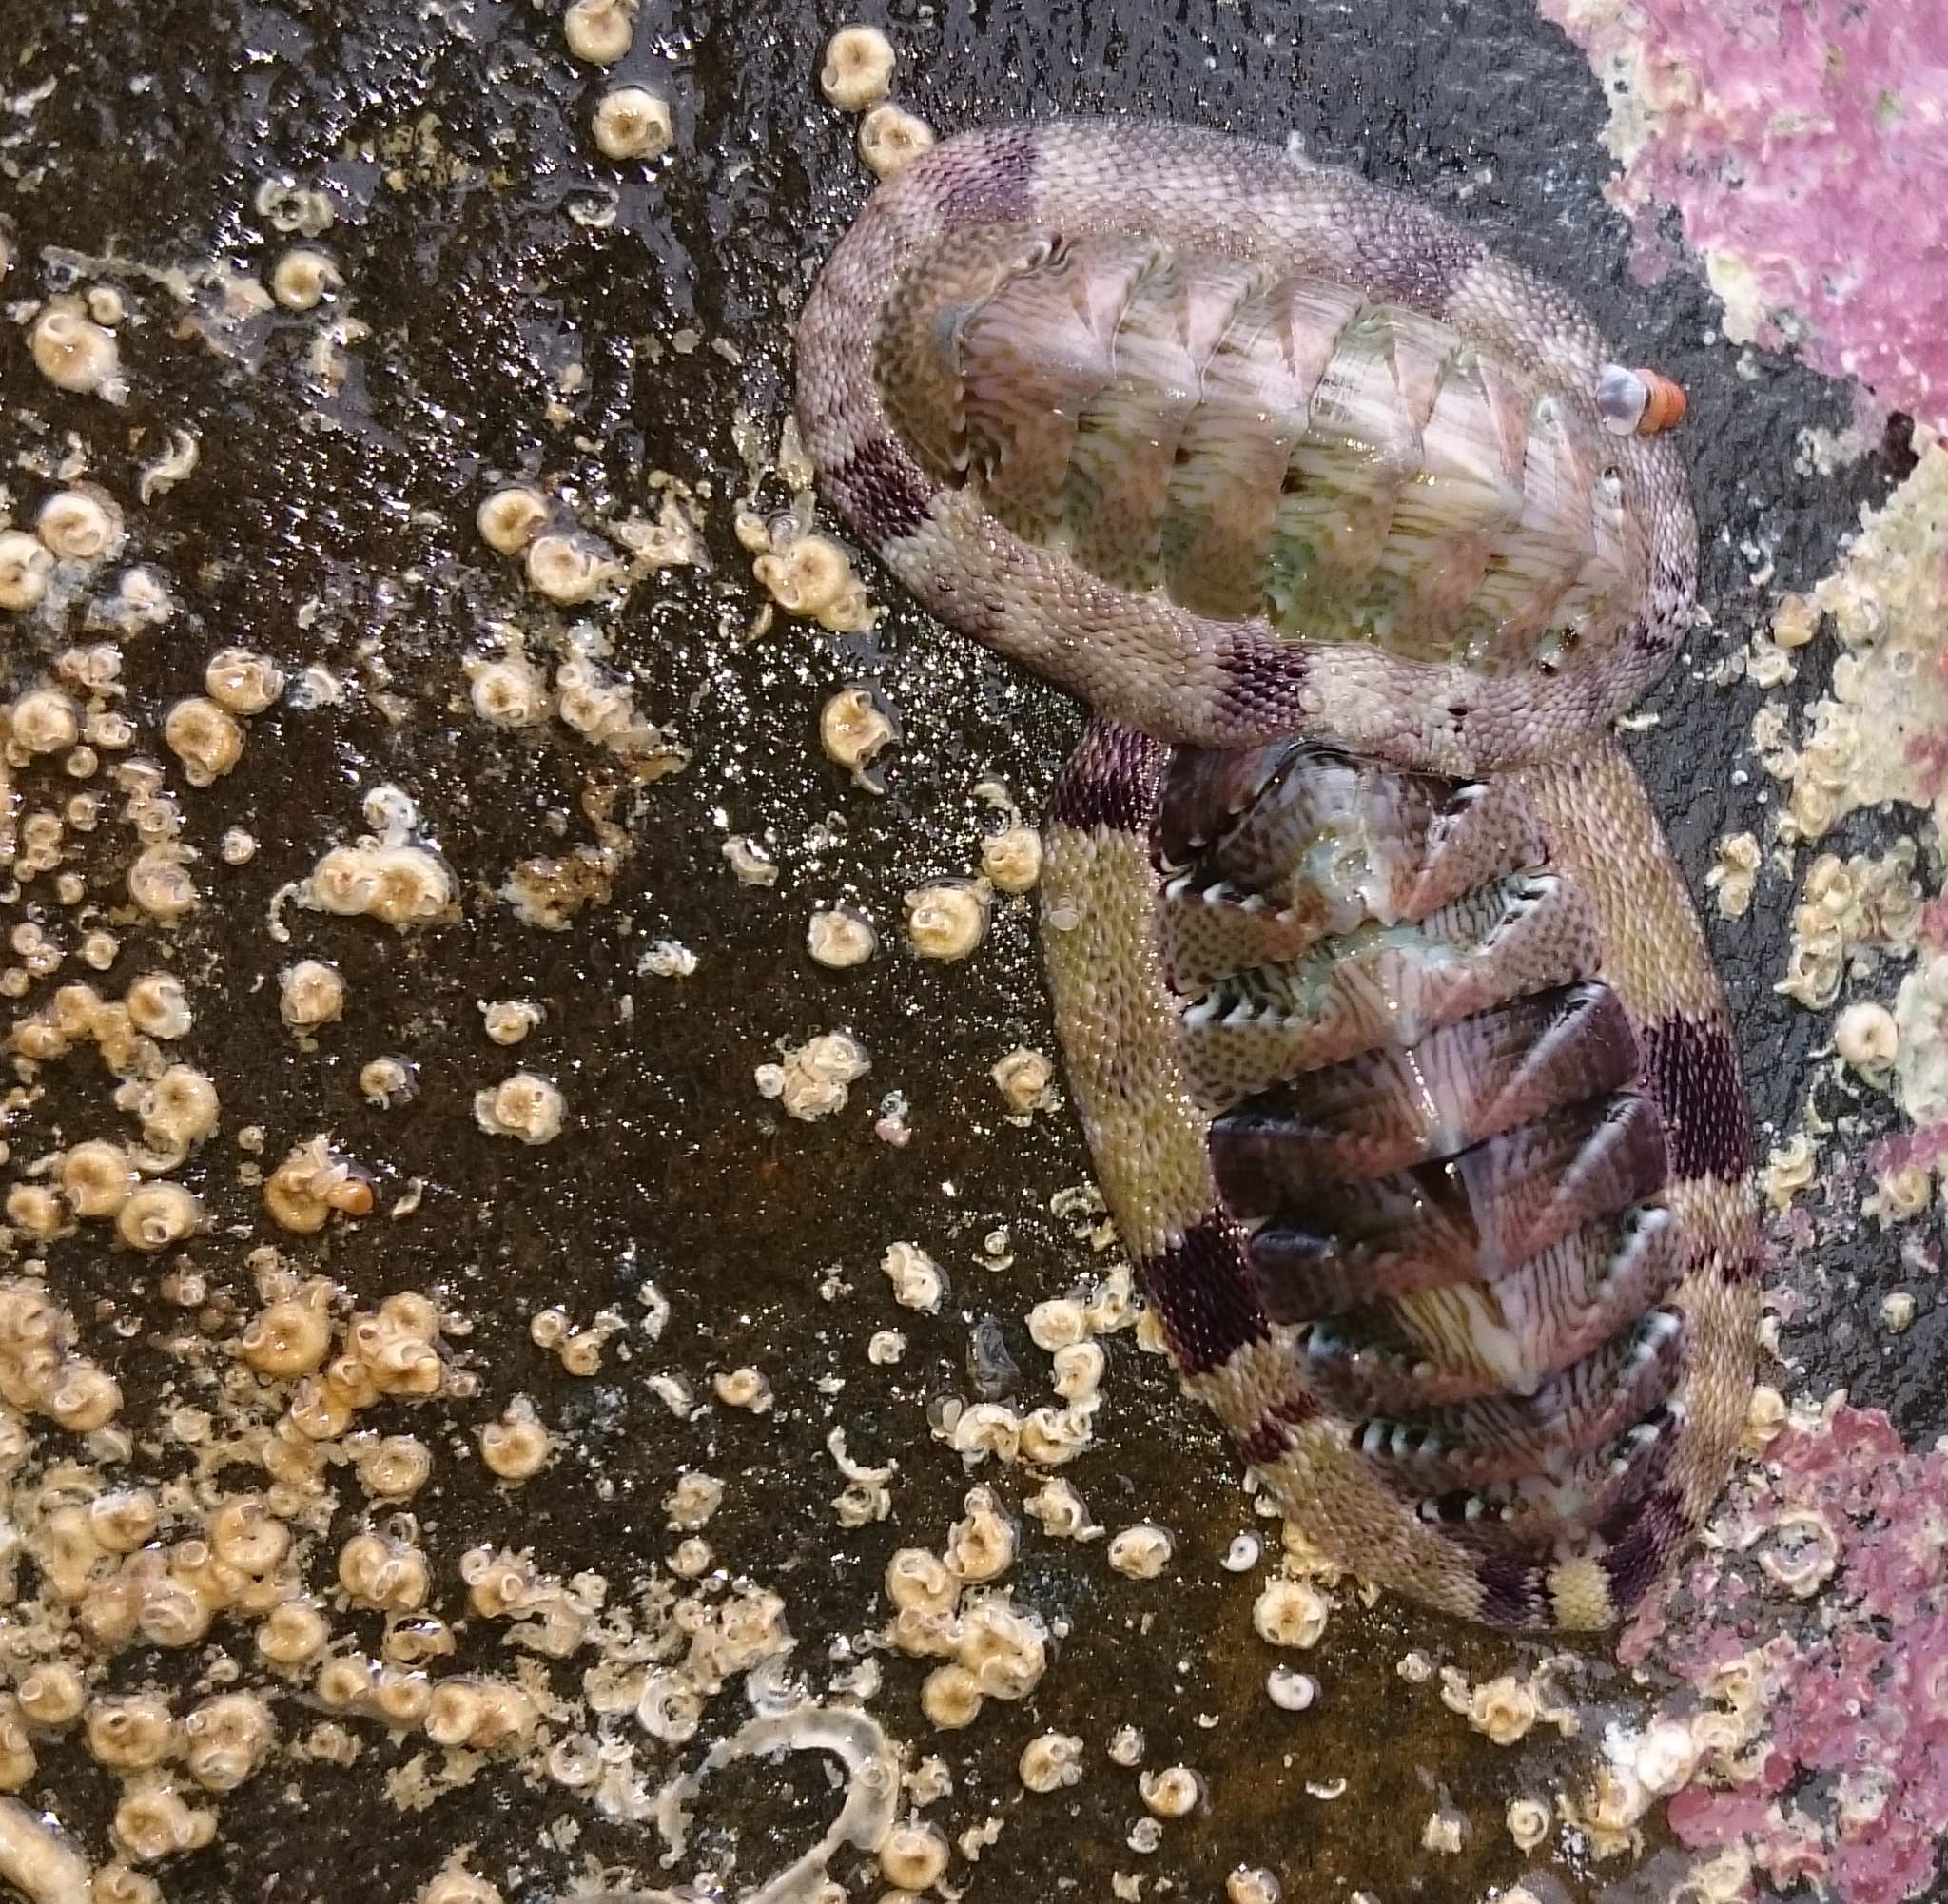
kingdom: Animalia
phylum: Mollusca
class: Polyplacophora
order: Chitonida
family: Chitonidae
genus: Rhyssoplax
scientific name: Rhyssoplax polita
